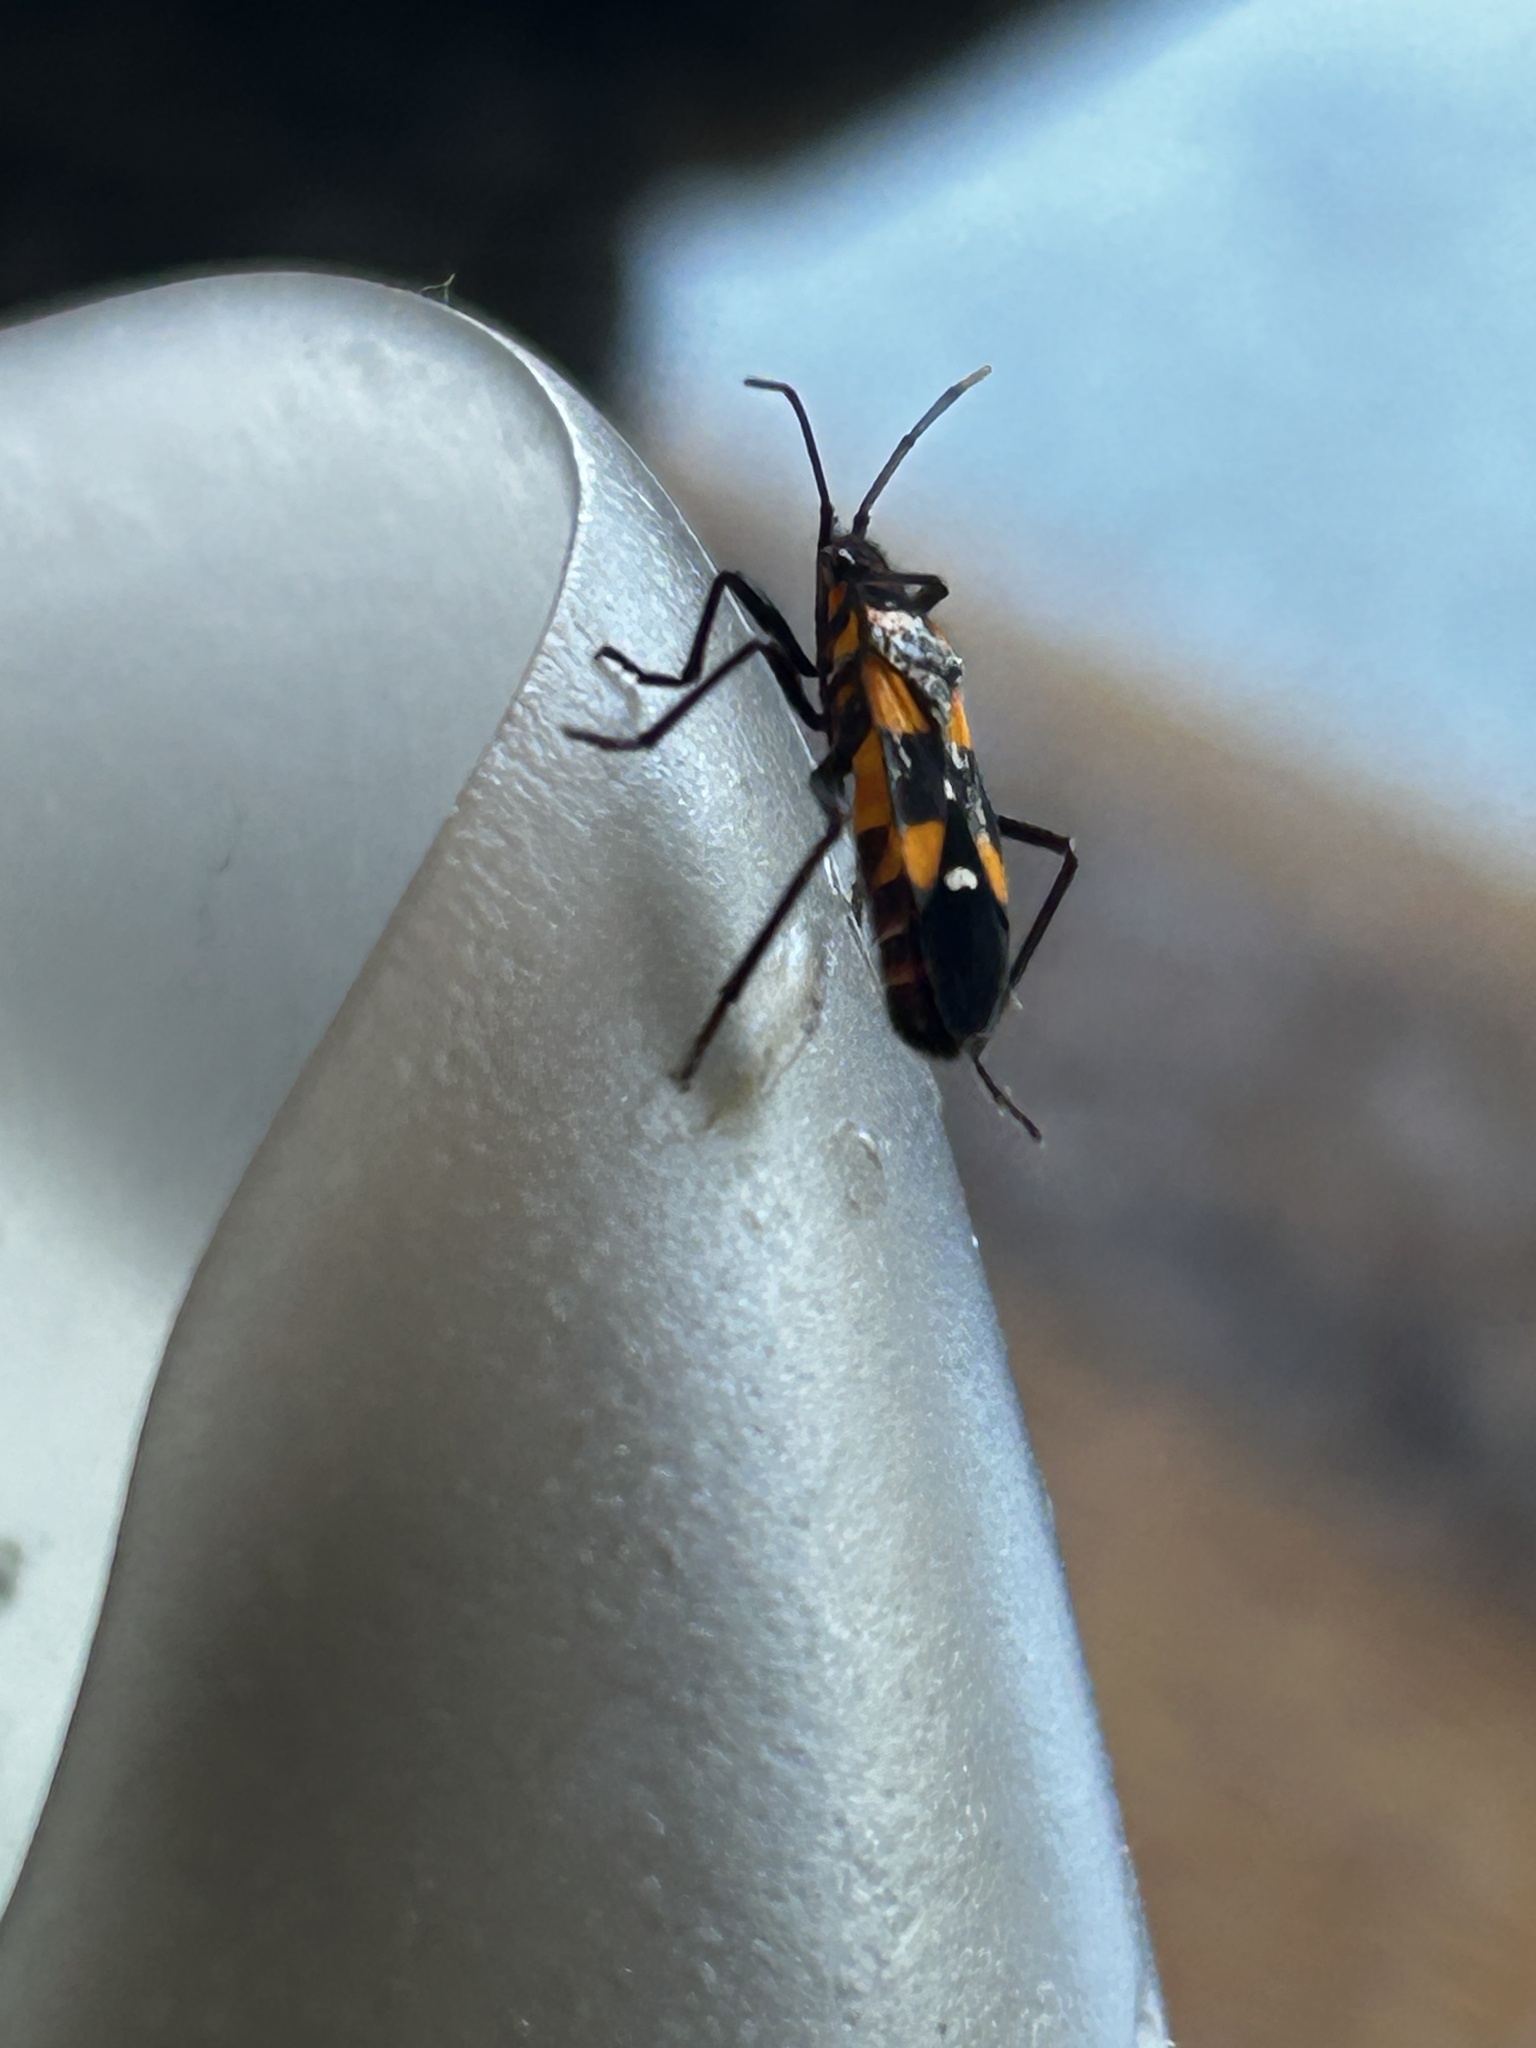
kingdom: Animalia
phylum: Arthropoda
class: Insecta
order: Hemiptera
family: Lygaeidae
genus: Oncopeltus
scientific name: Oncopeltus famelicus
